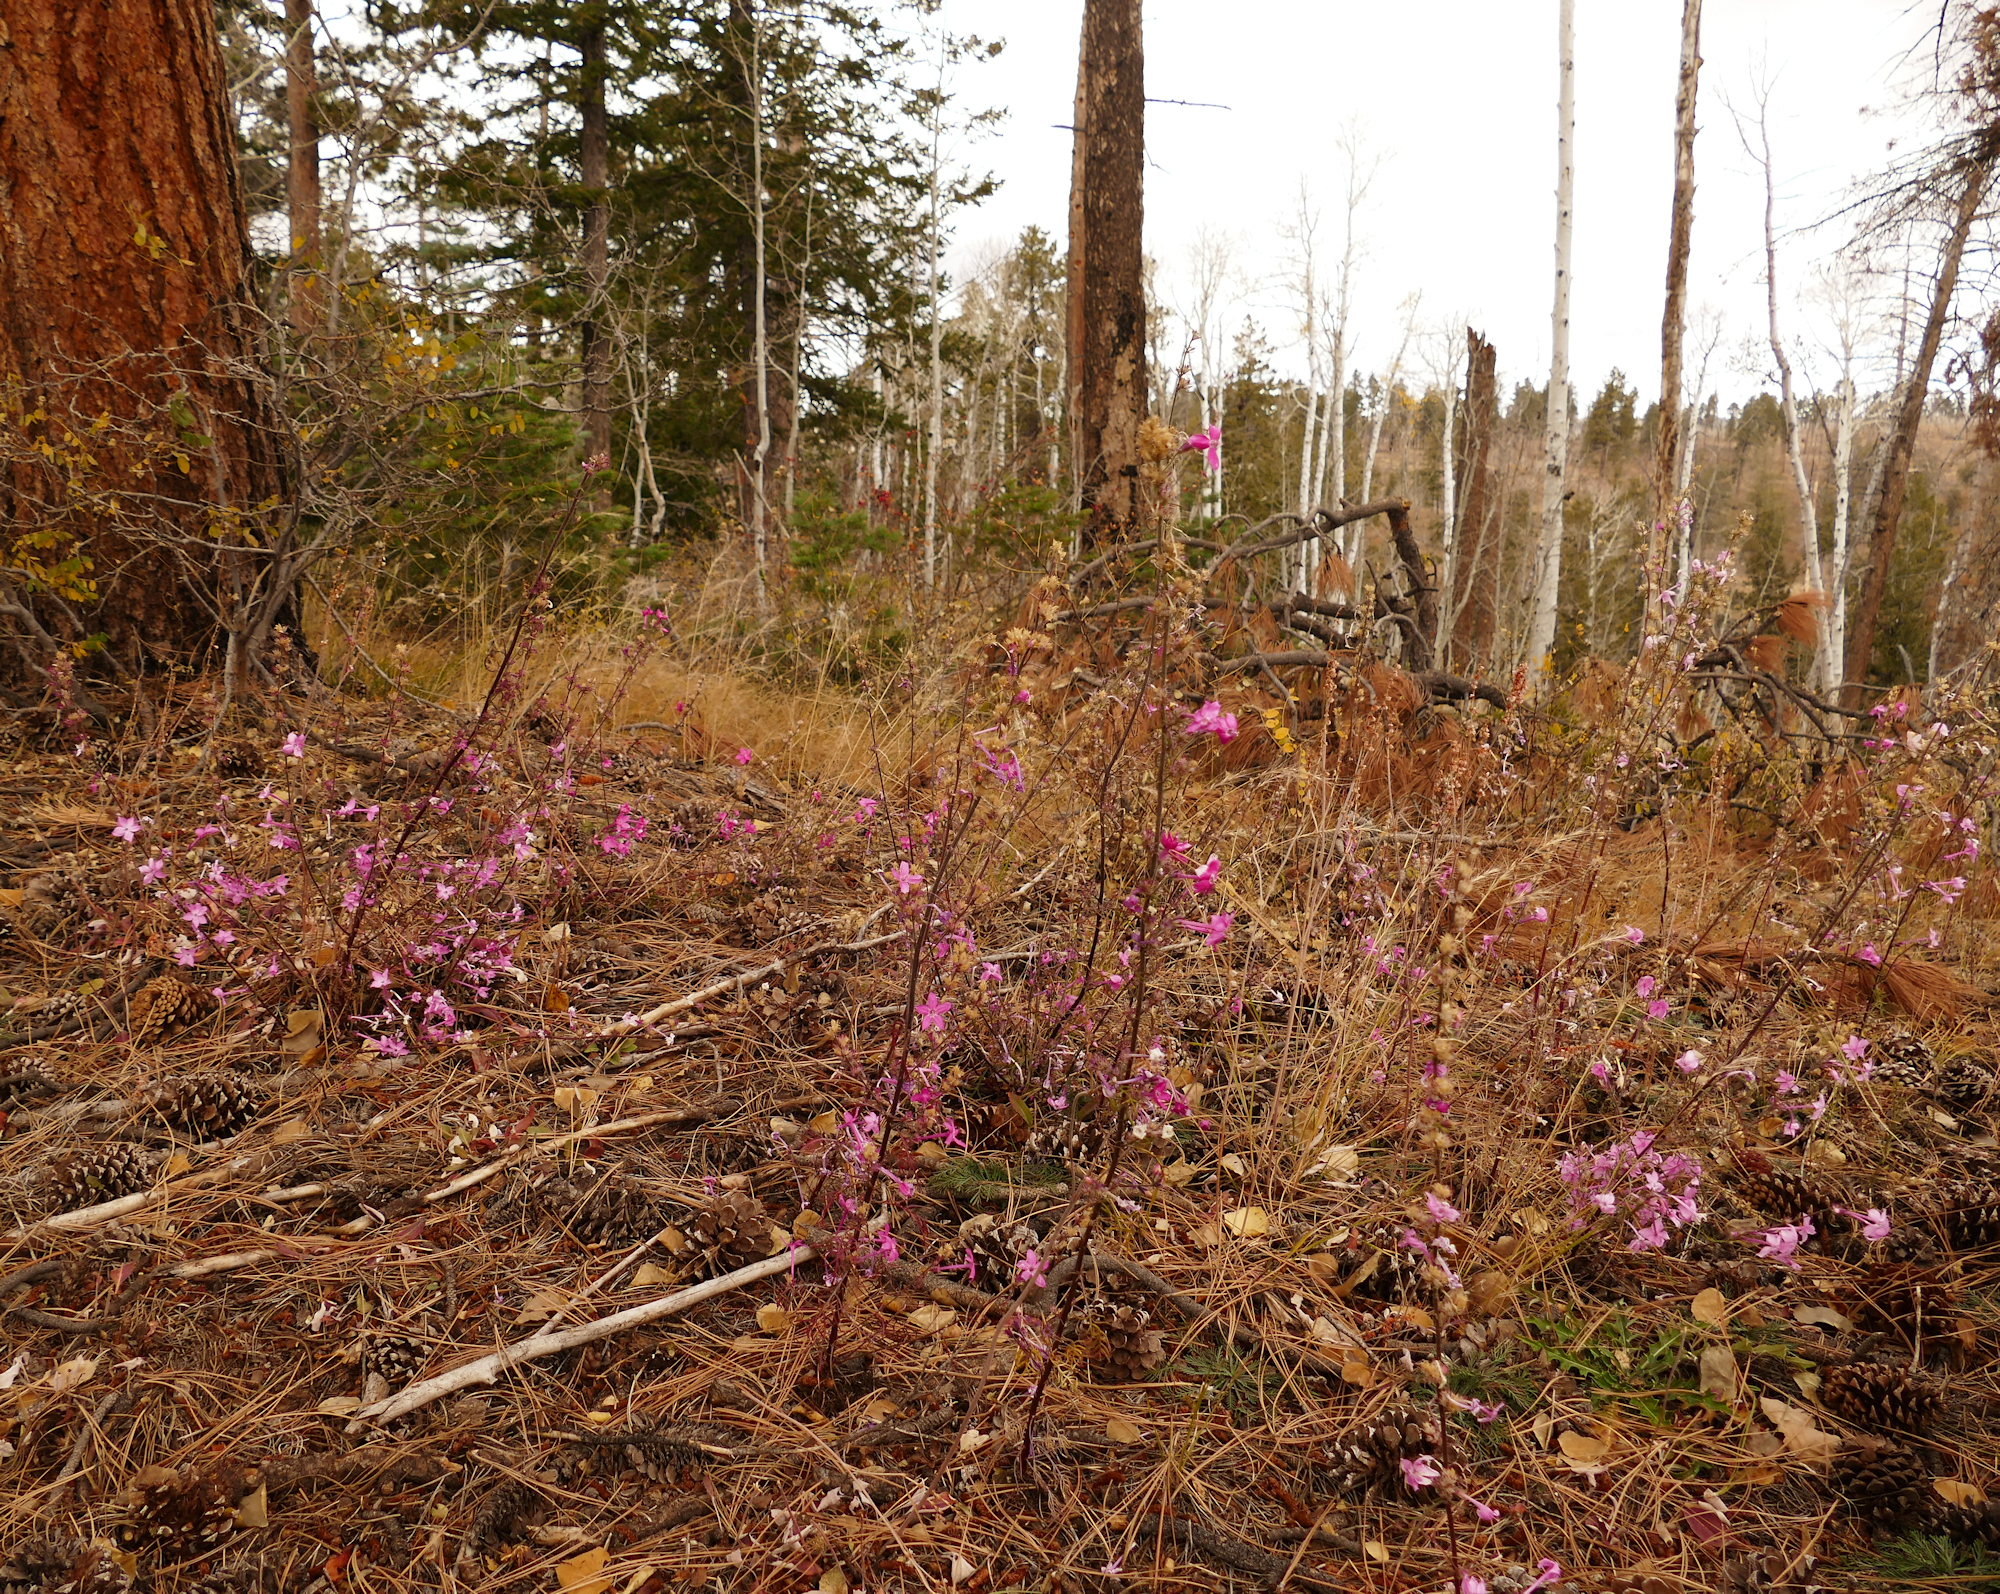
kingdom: Plantae
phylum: Tracheophyta
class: Magnoliopsida
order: Ericales
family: Polemoniaceae
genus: Ipomopsis
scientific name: Ipomopsis tenuituba
